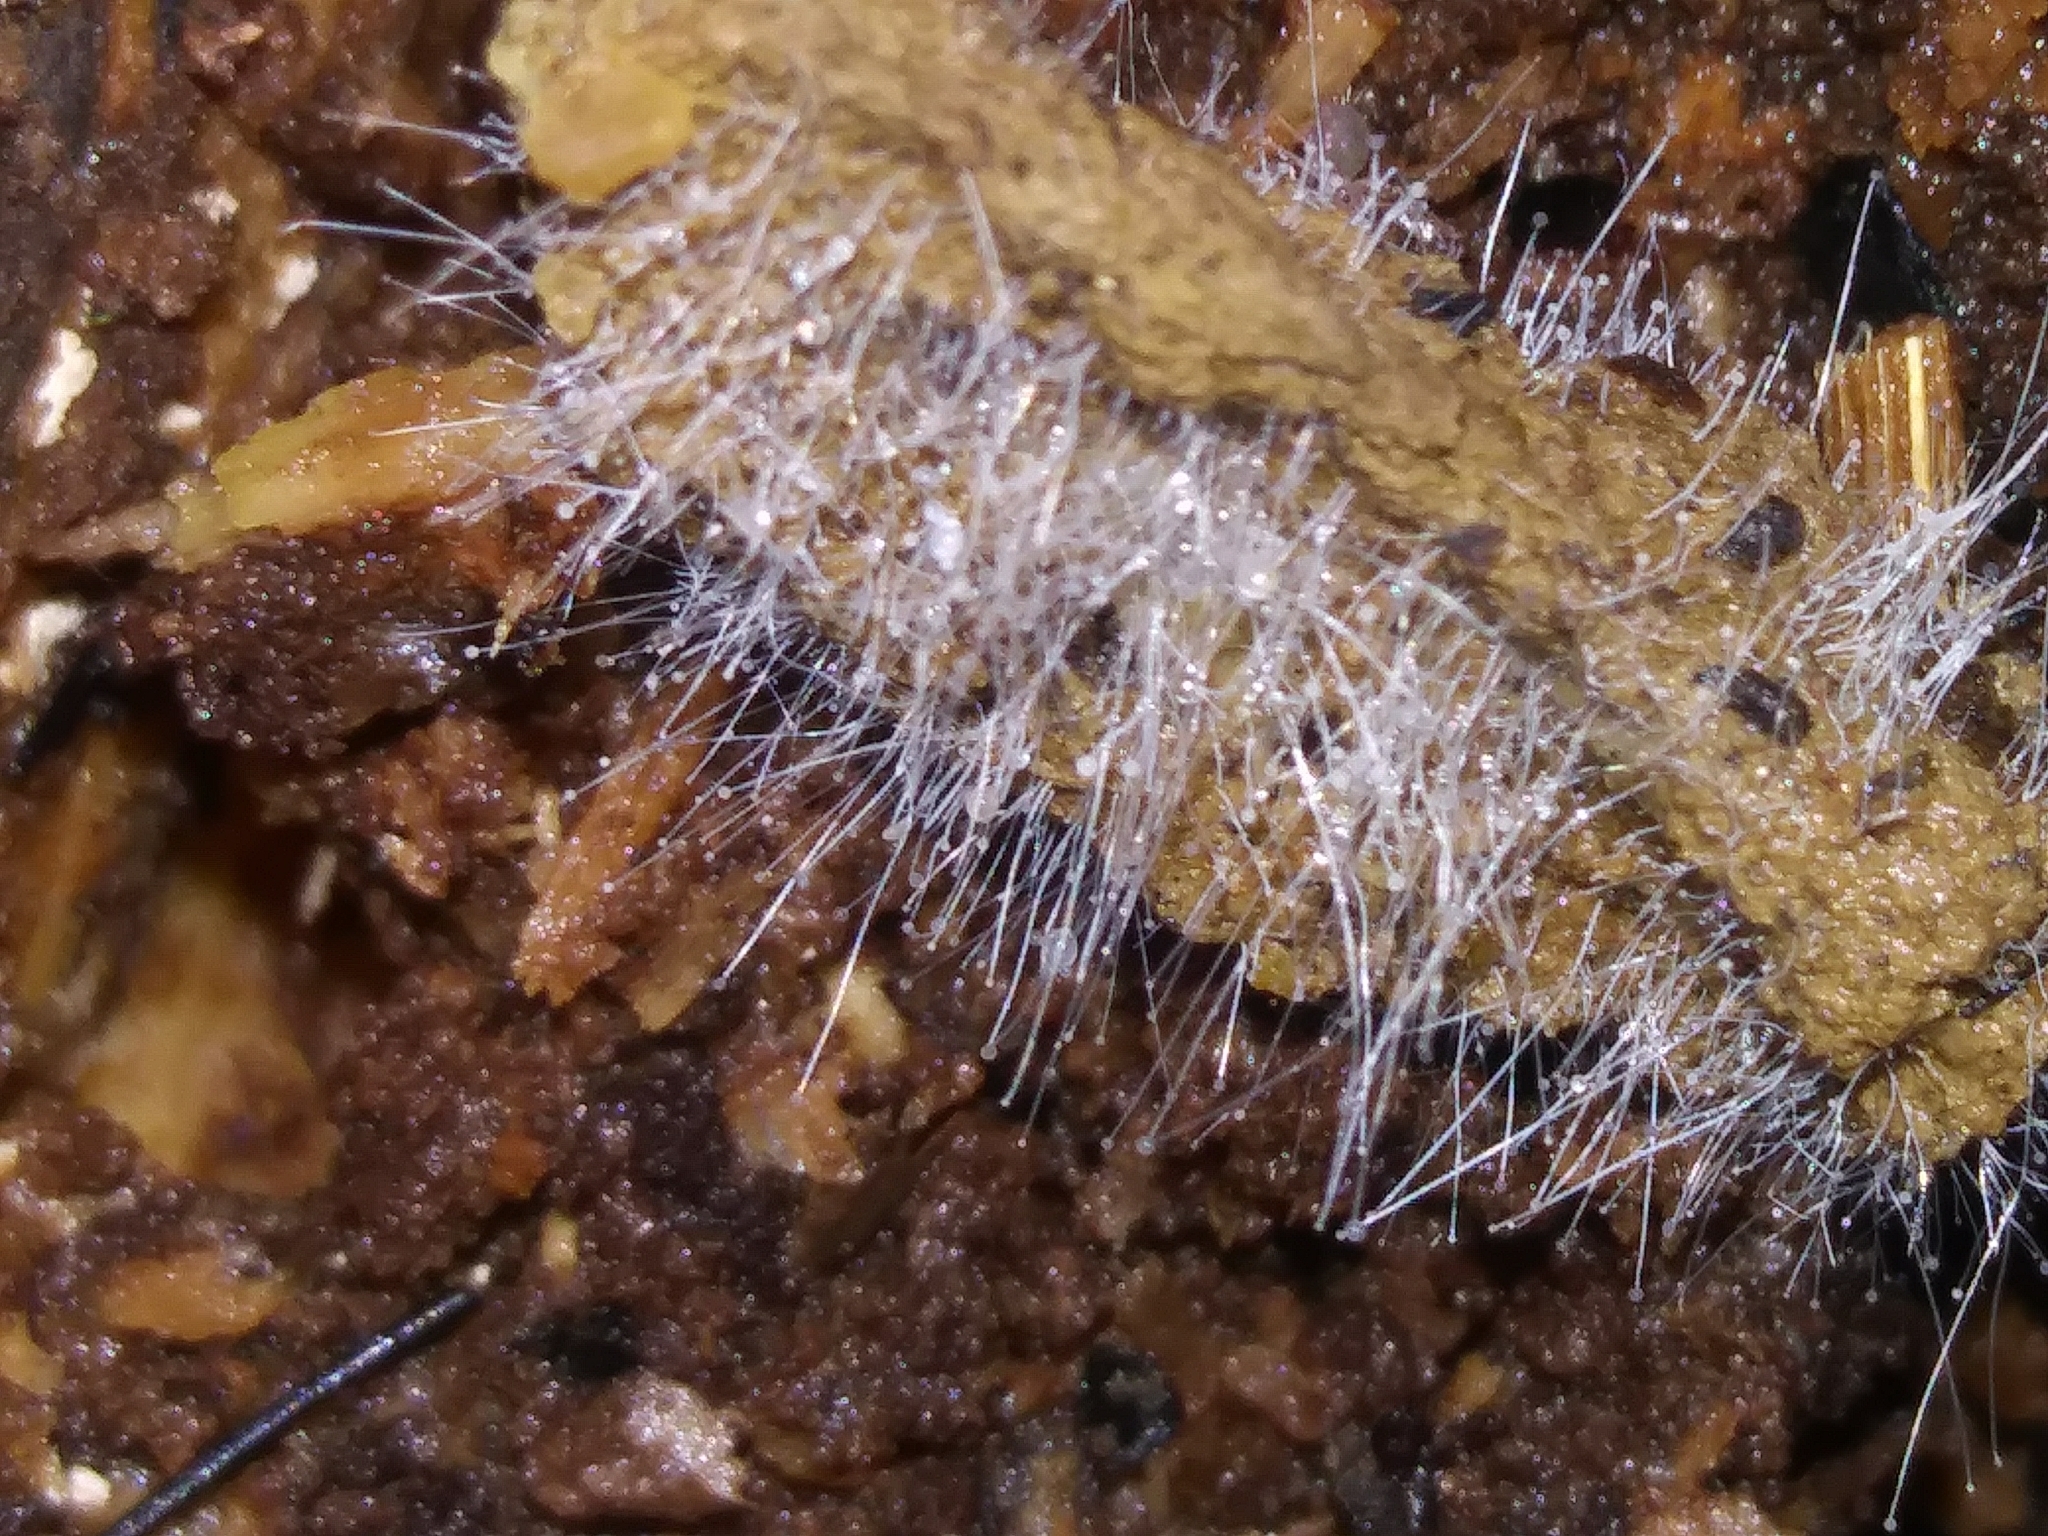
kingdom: Fungi
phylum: Mucoromycota
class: Mucoromycetes
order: Mucorales
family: Phycomycetaceae
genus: Spinellus
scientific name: Spinellus fusiger
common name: Bonnet mould
